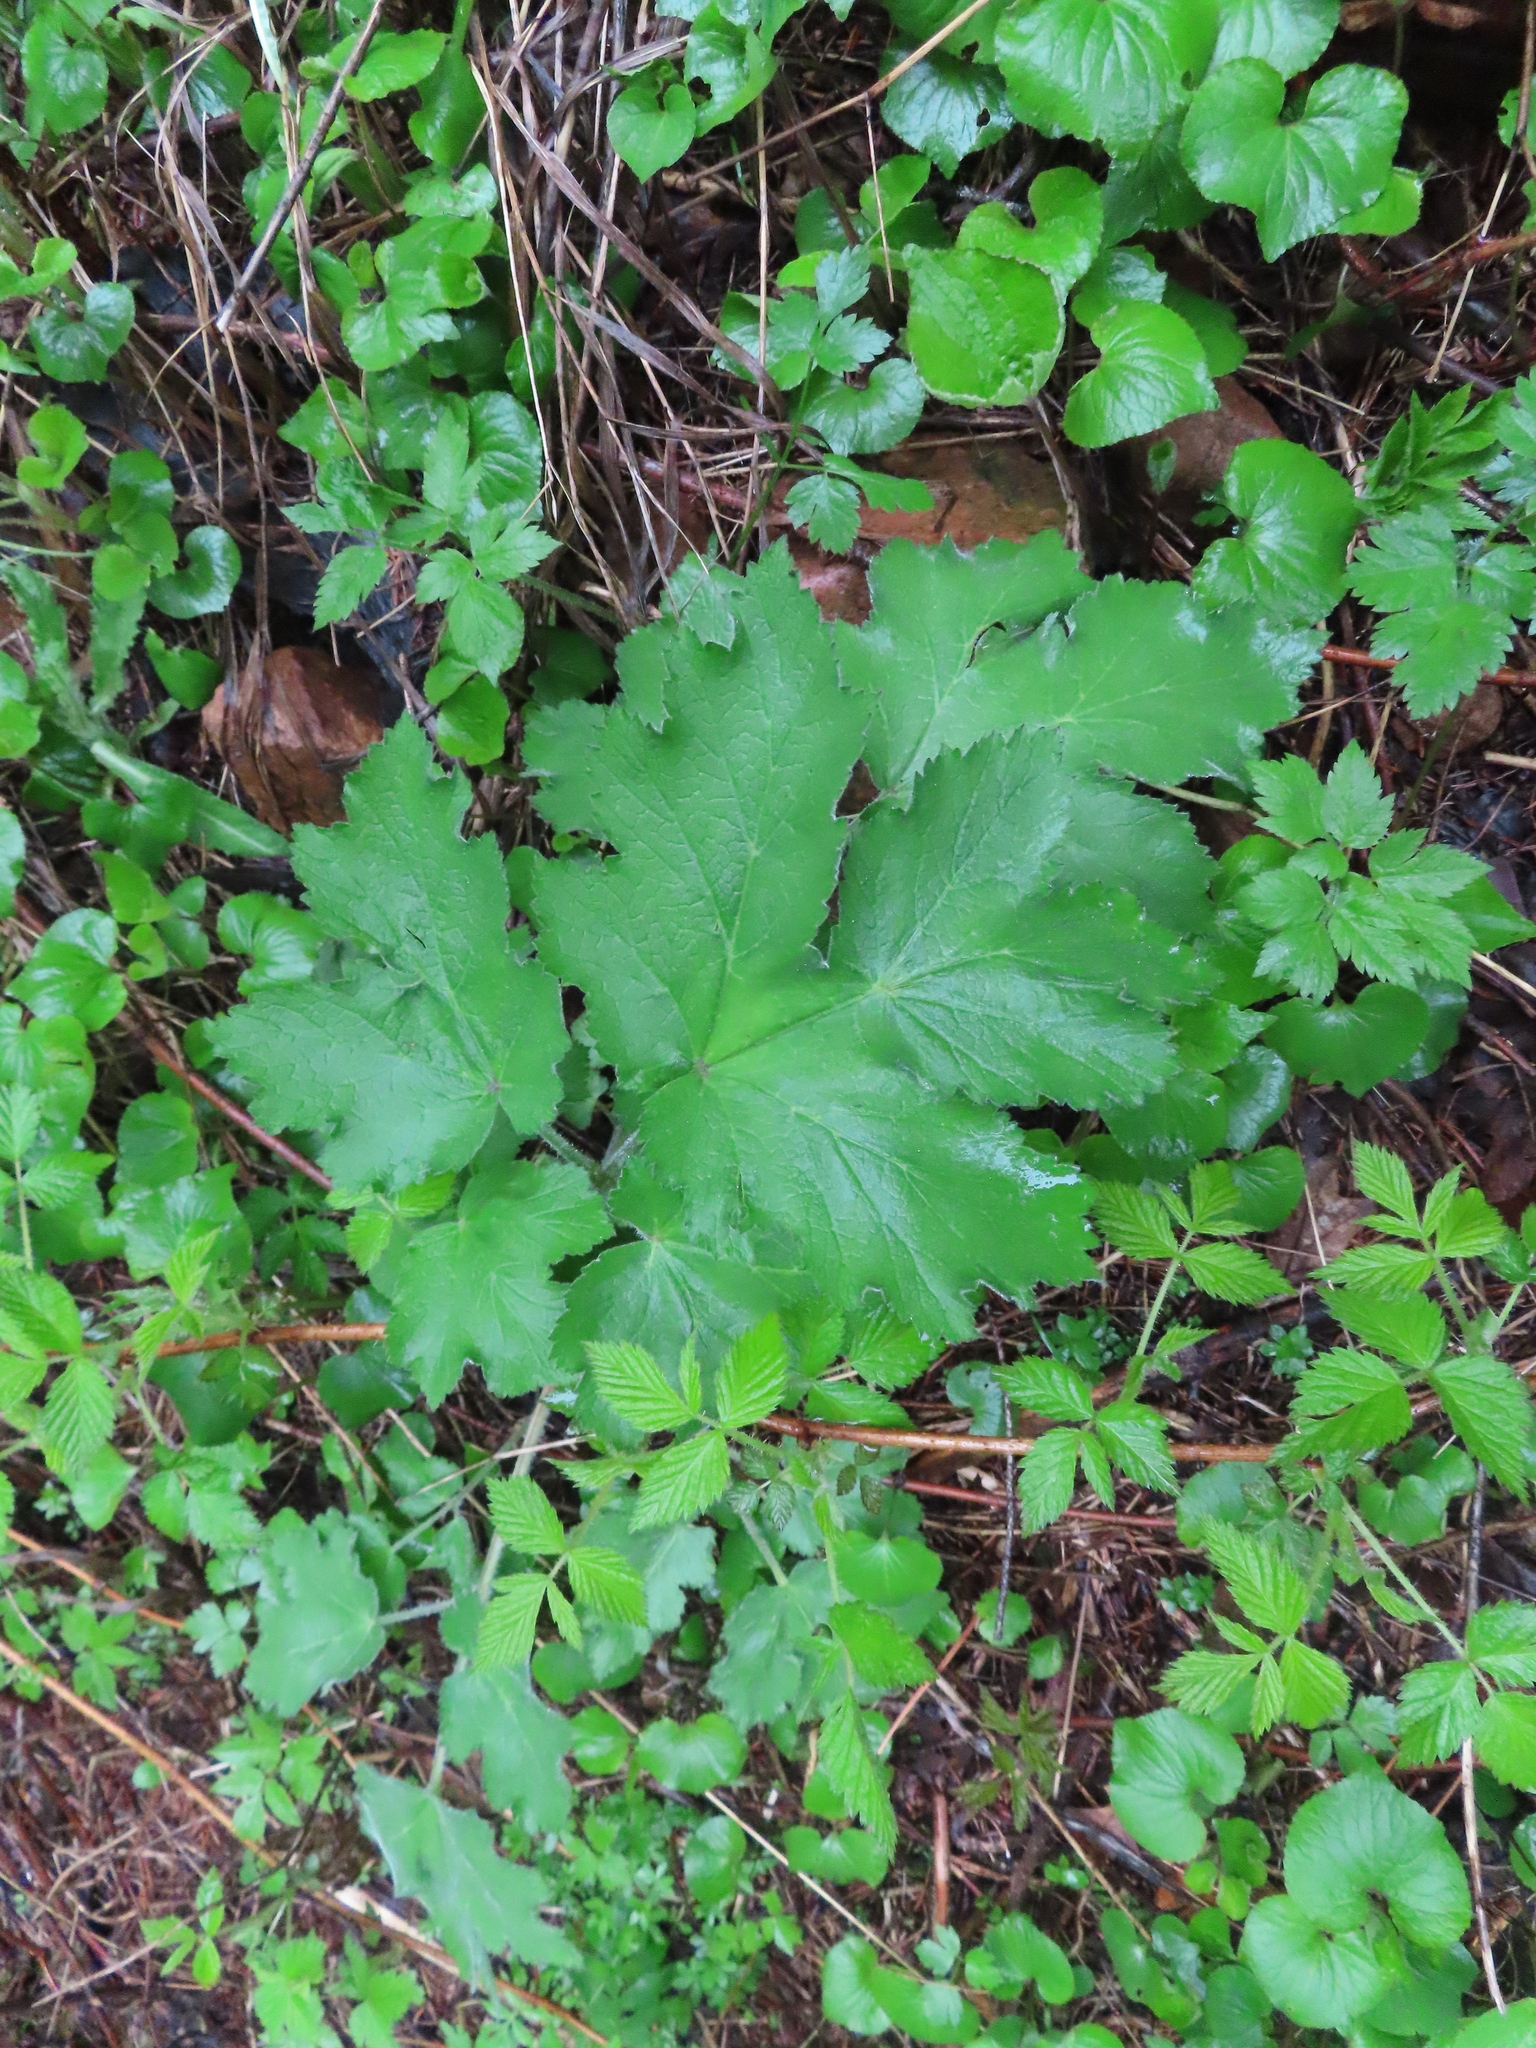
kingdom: Plantae
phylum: Tracheophyta
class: Magnoliopsida
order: Apiales
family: Apiaceae
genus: Heracleum
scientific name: Heracleum maximum
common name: American cow parsnip
